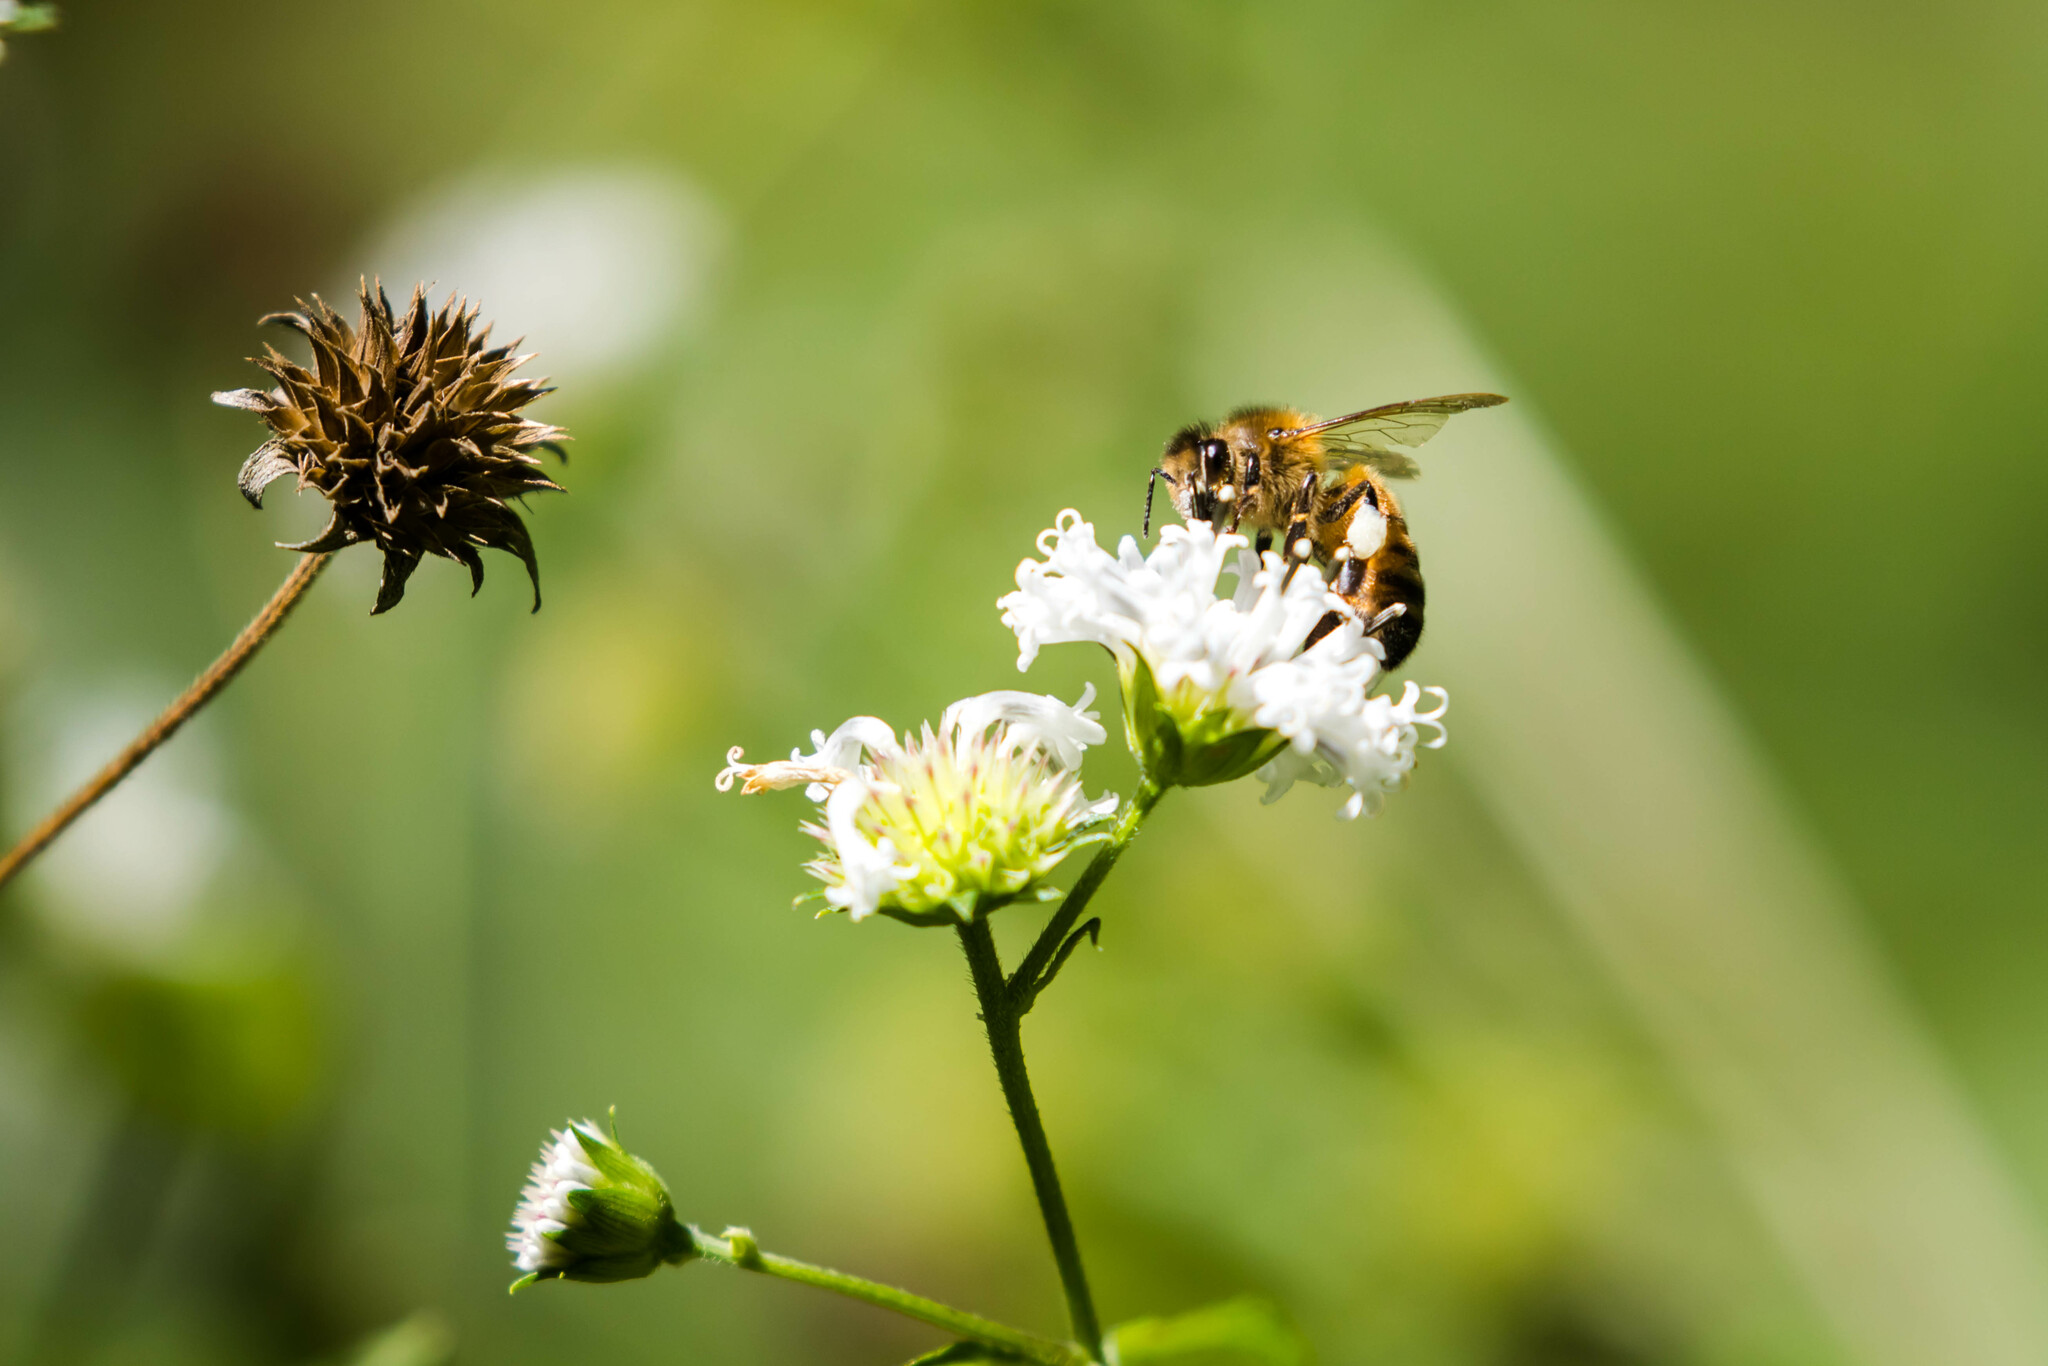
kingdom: Animalia
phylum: Arthropoda
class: Insecta
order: Hymenoptera
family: Apidae
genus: Apis
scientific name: Apis mellifera
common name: Honey bee
